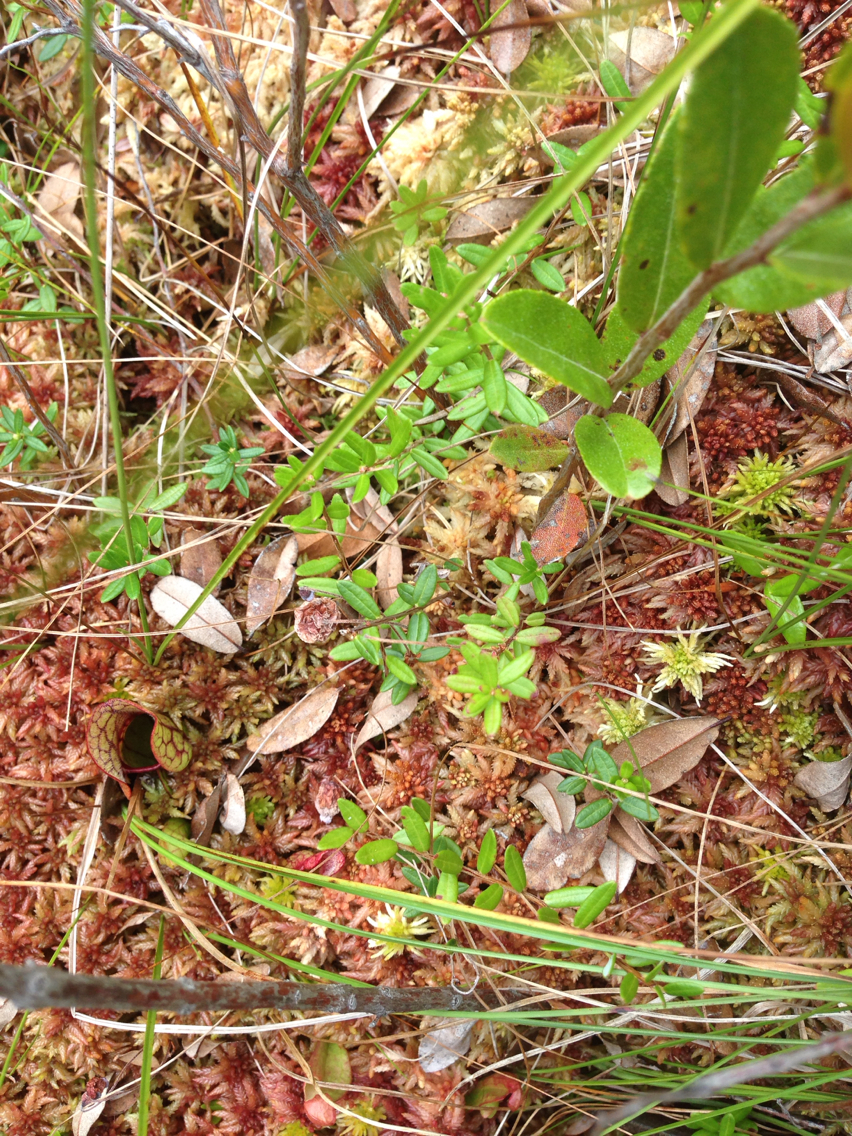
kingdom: Plantae
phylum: Tracheophyta
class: Magnoliopsida
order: Ericales
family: Ericaceae
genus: Vaccinium
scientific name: Vaccinium oxycoccos
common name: Cranberry
